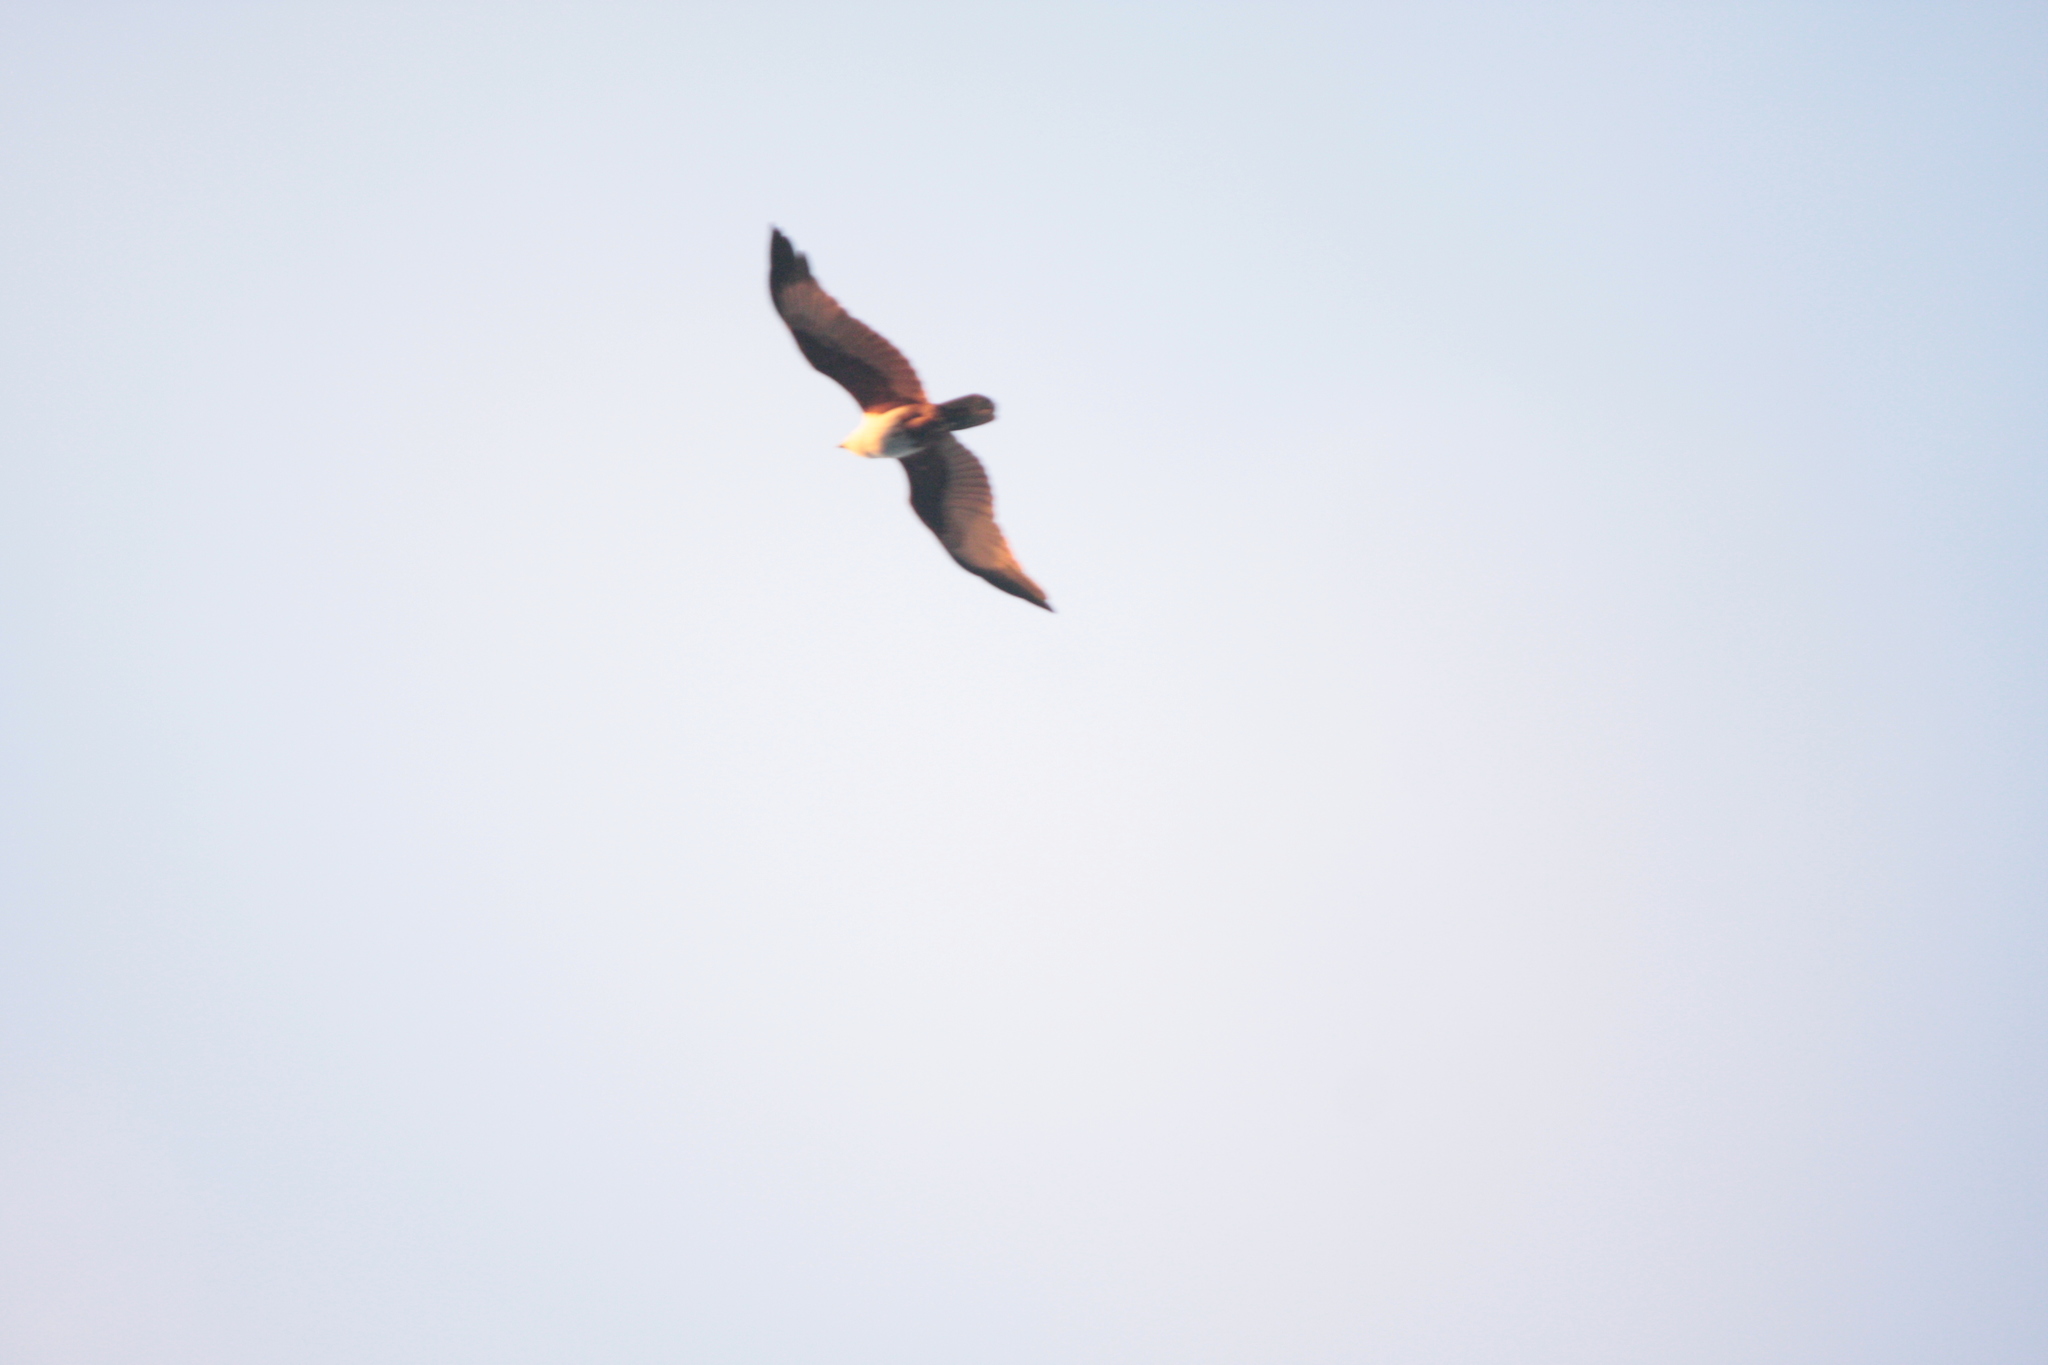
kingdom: Animalia
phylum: Chordata
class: Aves
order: Accipitriformes
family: Accipitridae
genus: Haliastur
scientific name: Haliastur indus
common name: Brahminy kite
